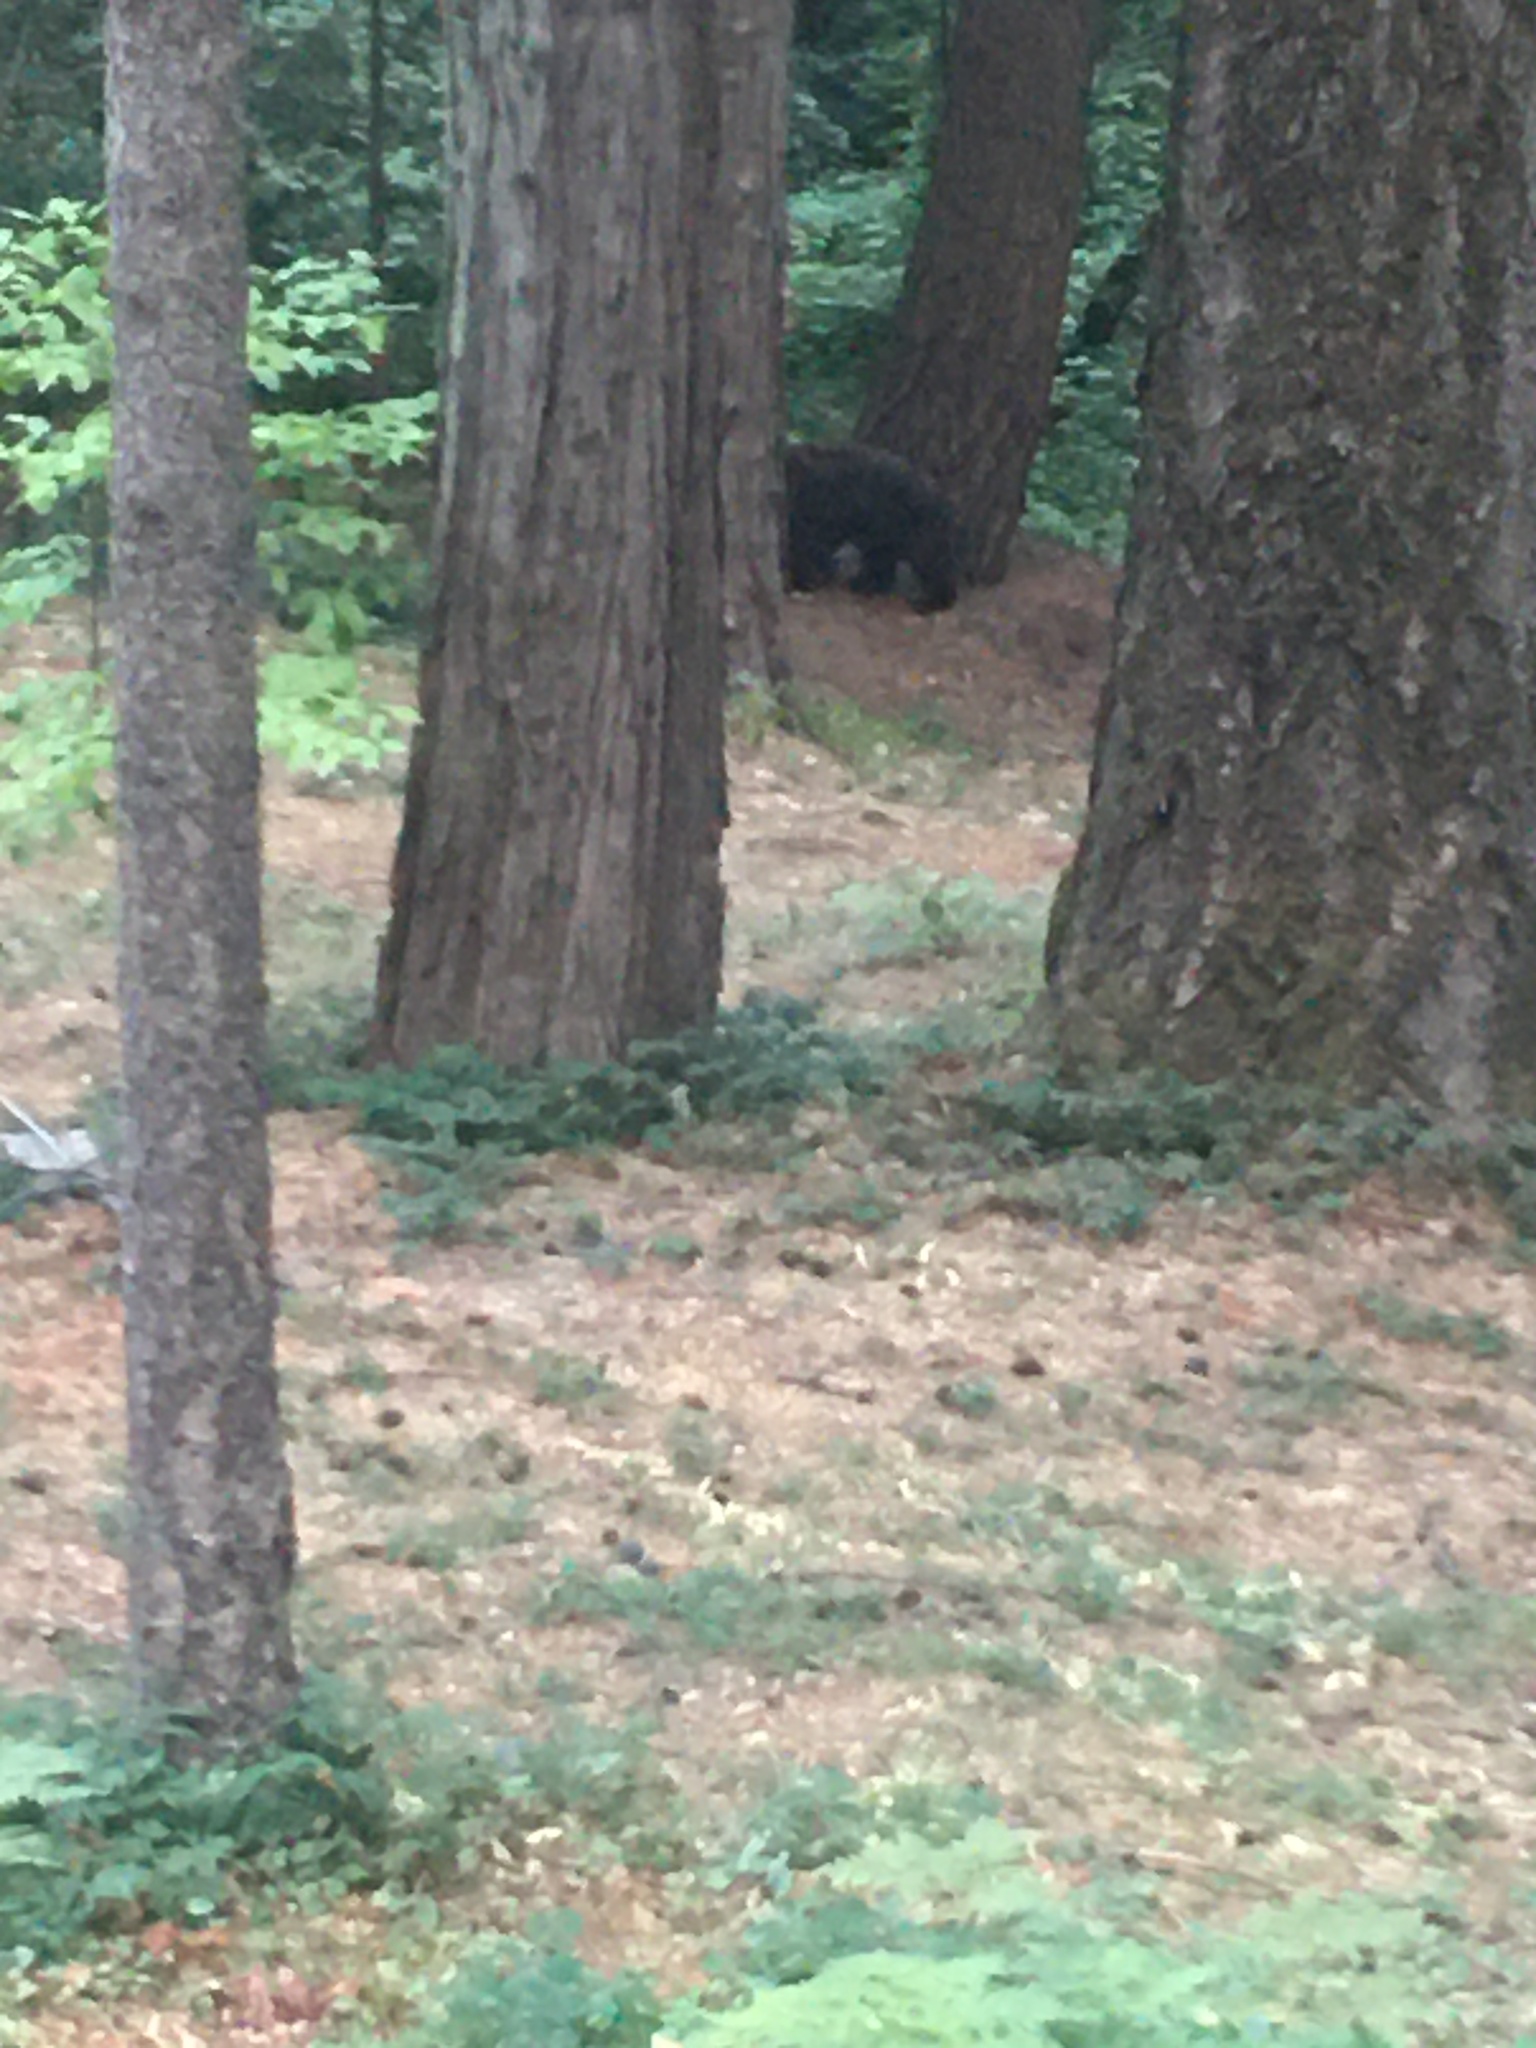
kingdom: Animalia
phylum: Chordata
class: Mammalia
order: Carnivora
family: Ursidae
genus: Ursus
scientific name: Ursus americanus
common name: American black bear
